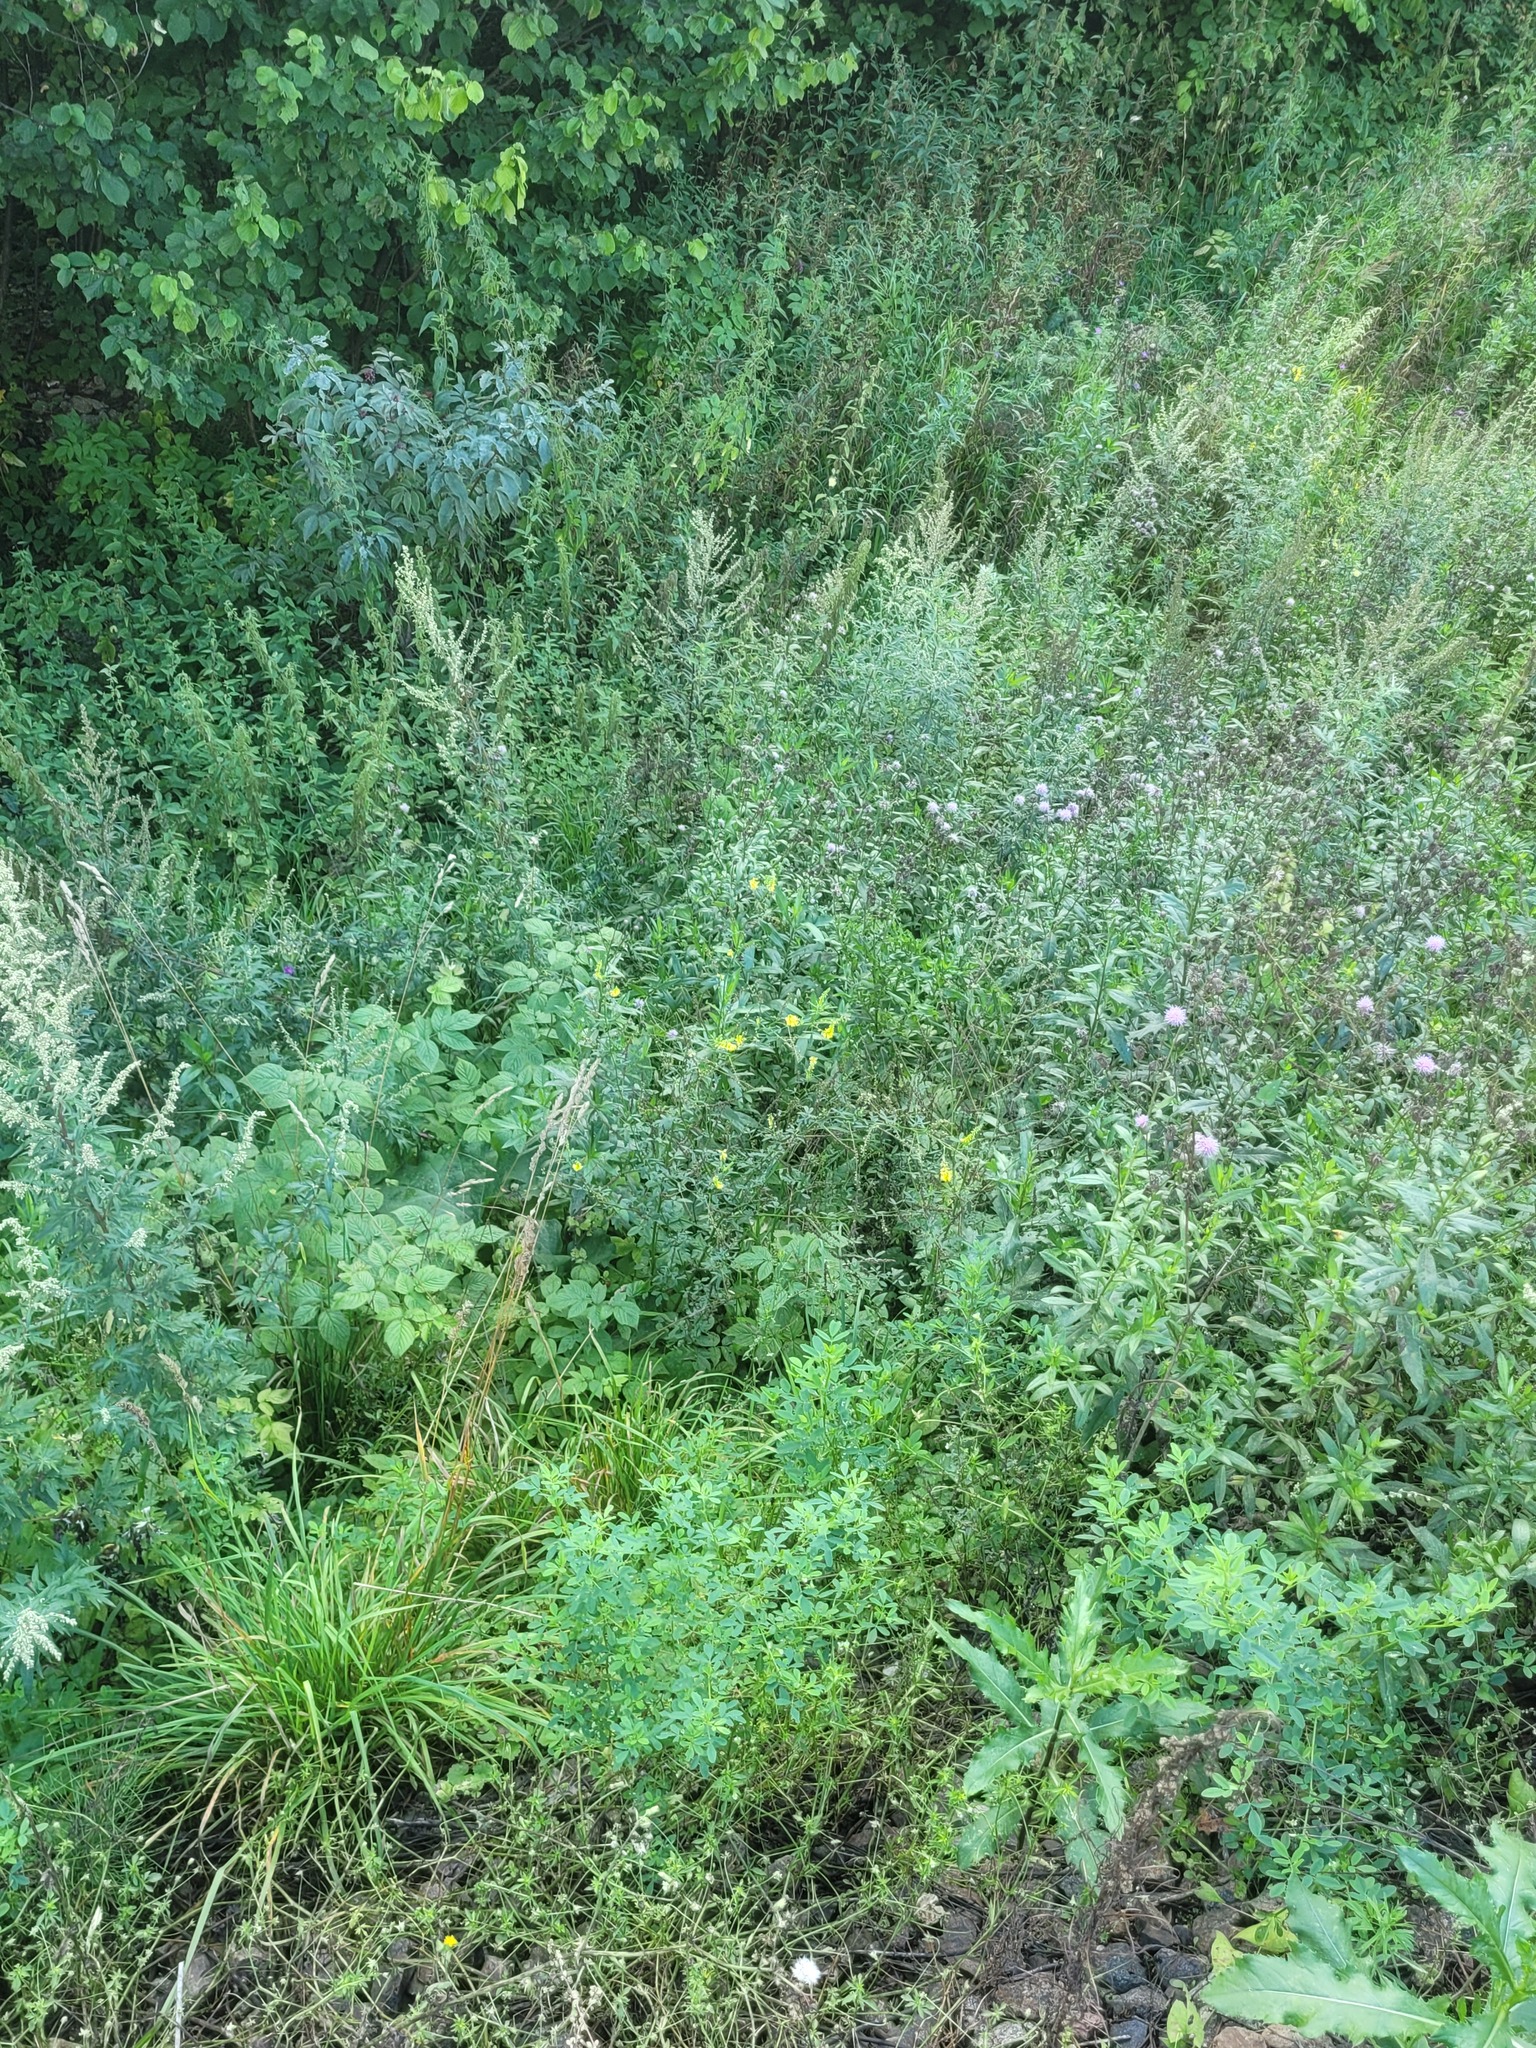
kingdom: Plantae
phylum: Tracheophyta
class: Magnoliopsida
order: Fabales
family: Fabaceae
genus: Melilotus
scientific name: Melilotus officinalis
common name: Sweetclover
